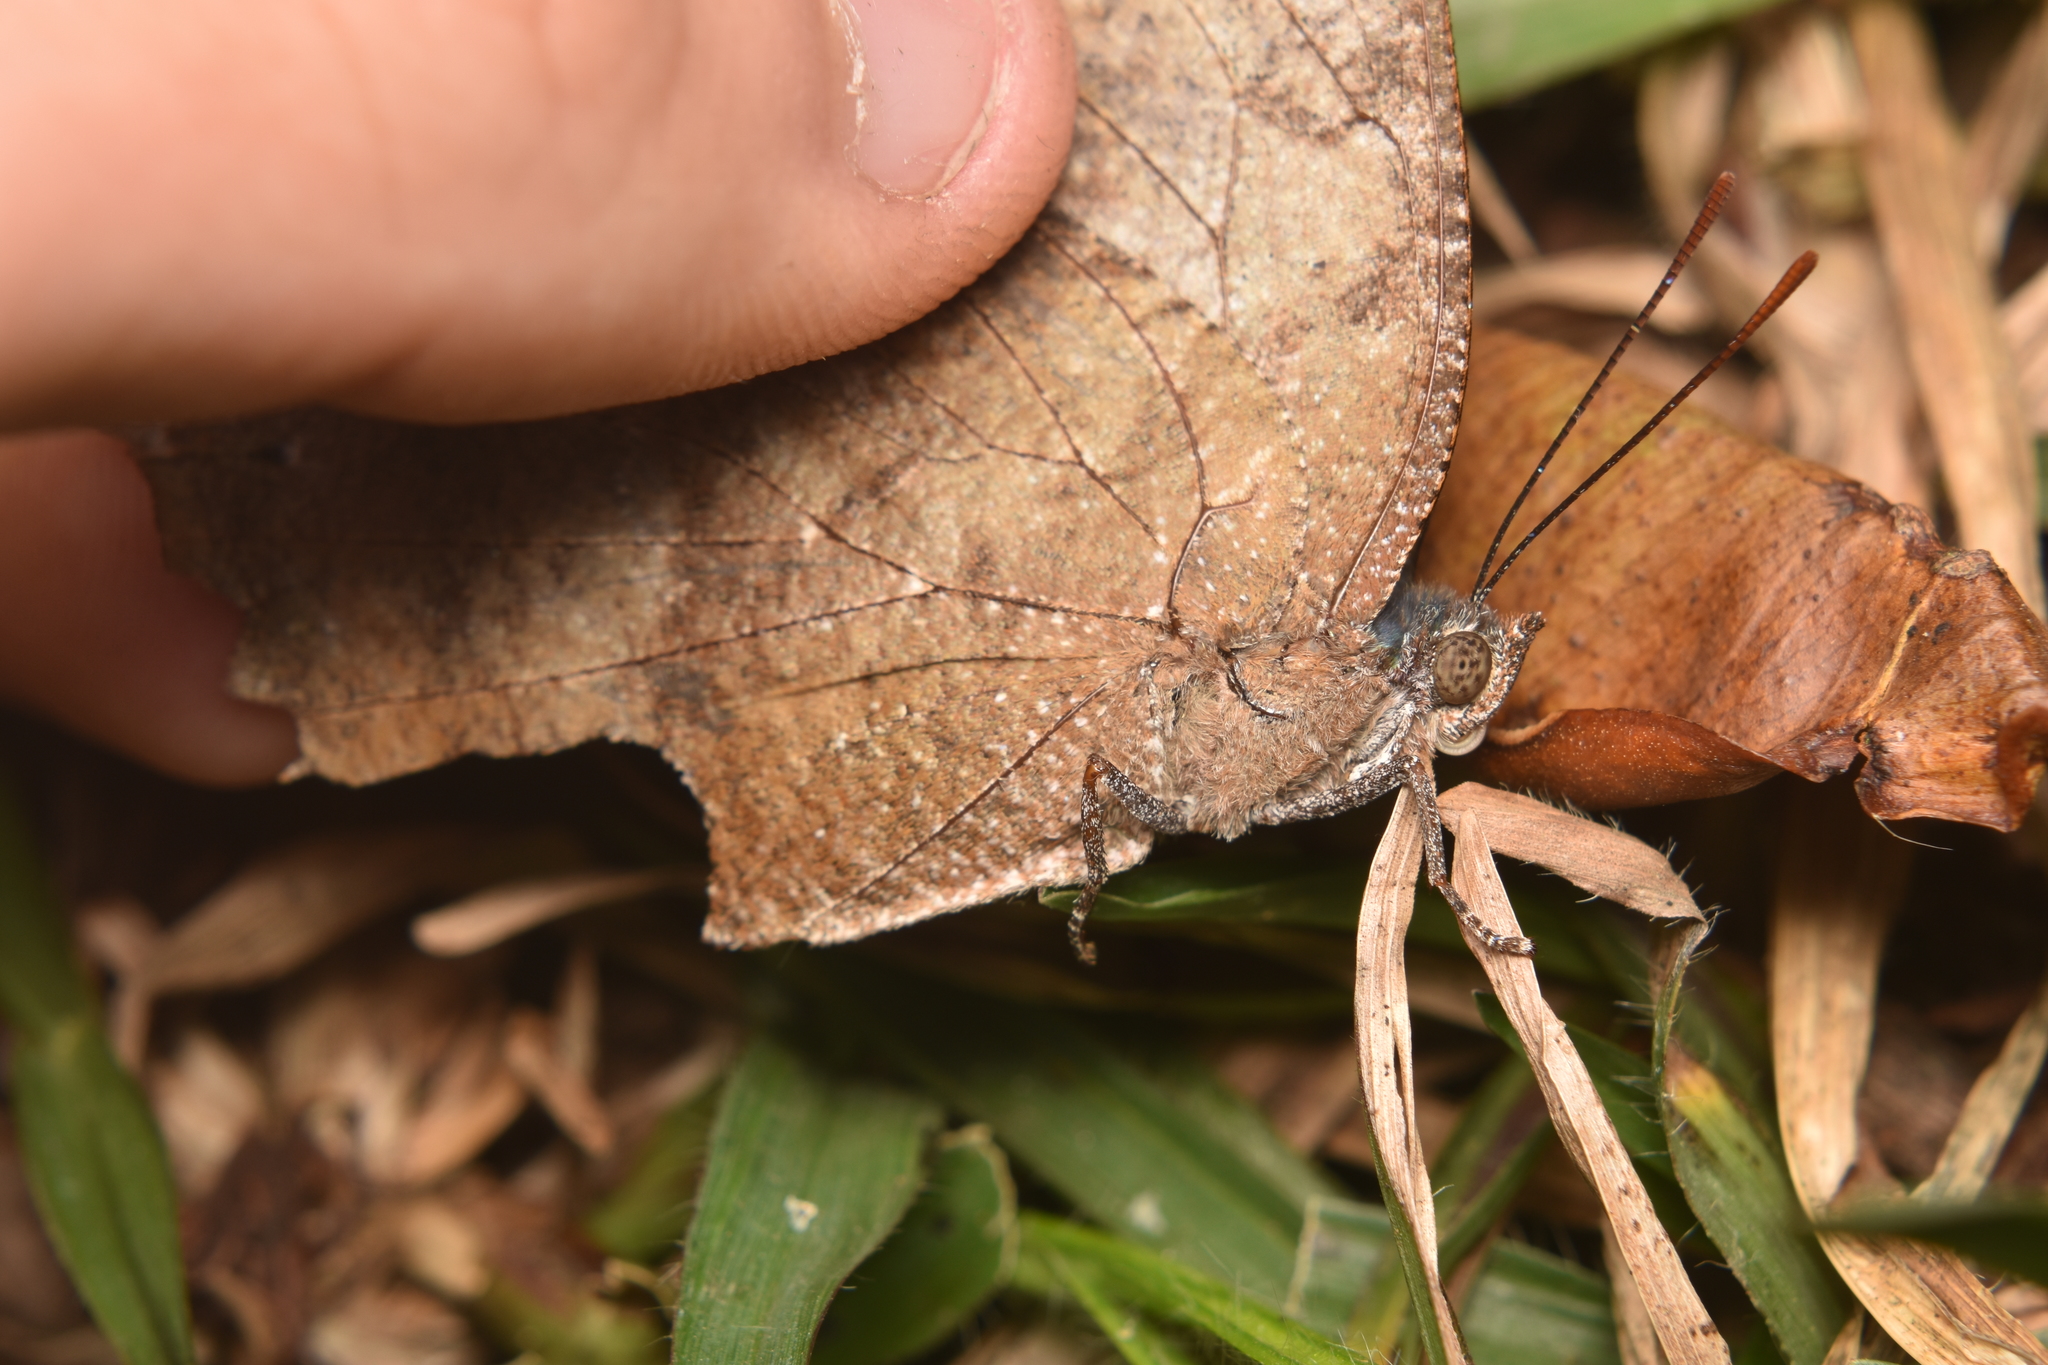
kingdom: Animalia
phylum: Arthropoda
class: Insecta
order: Lepidoptera
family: Nymphalidae
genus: Memphis
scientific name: Memphis moruus
